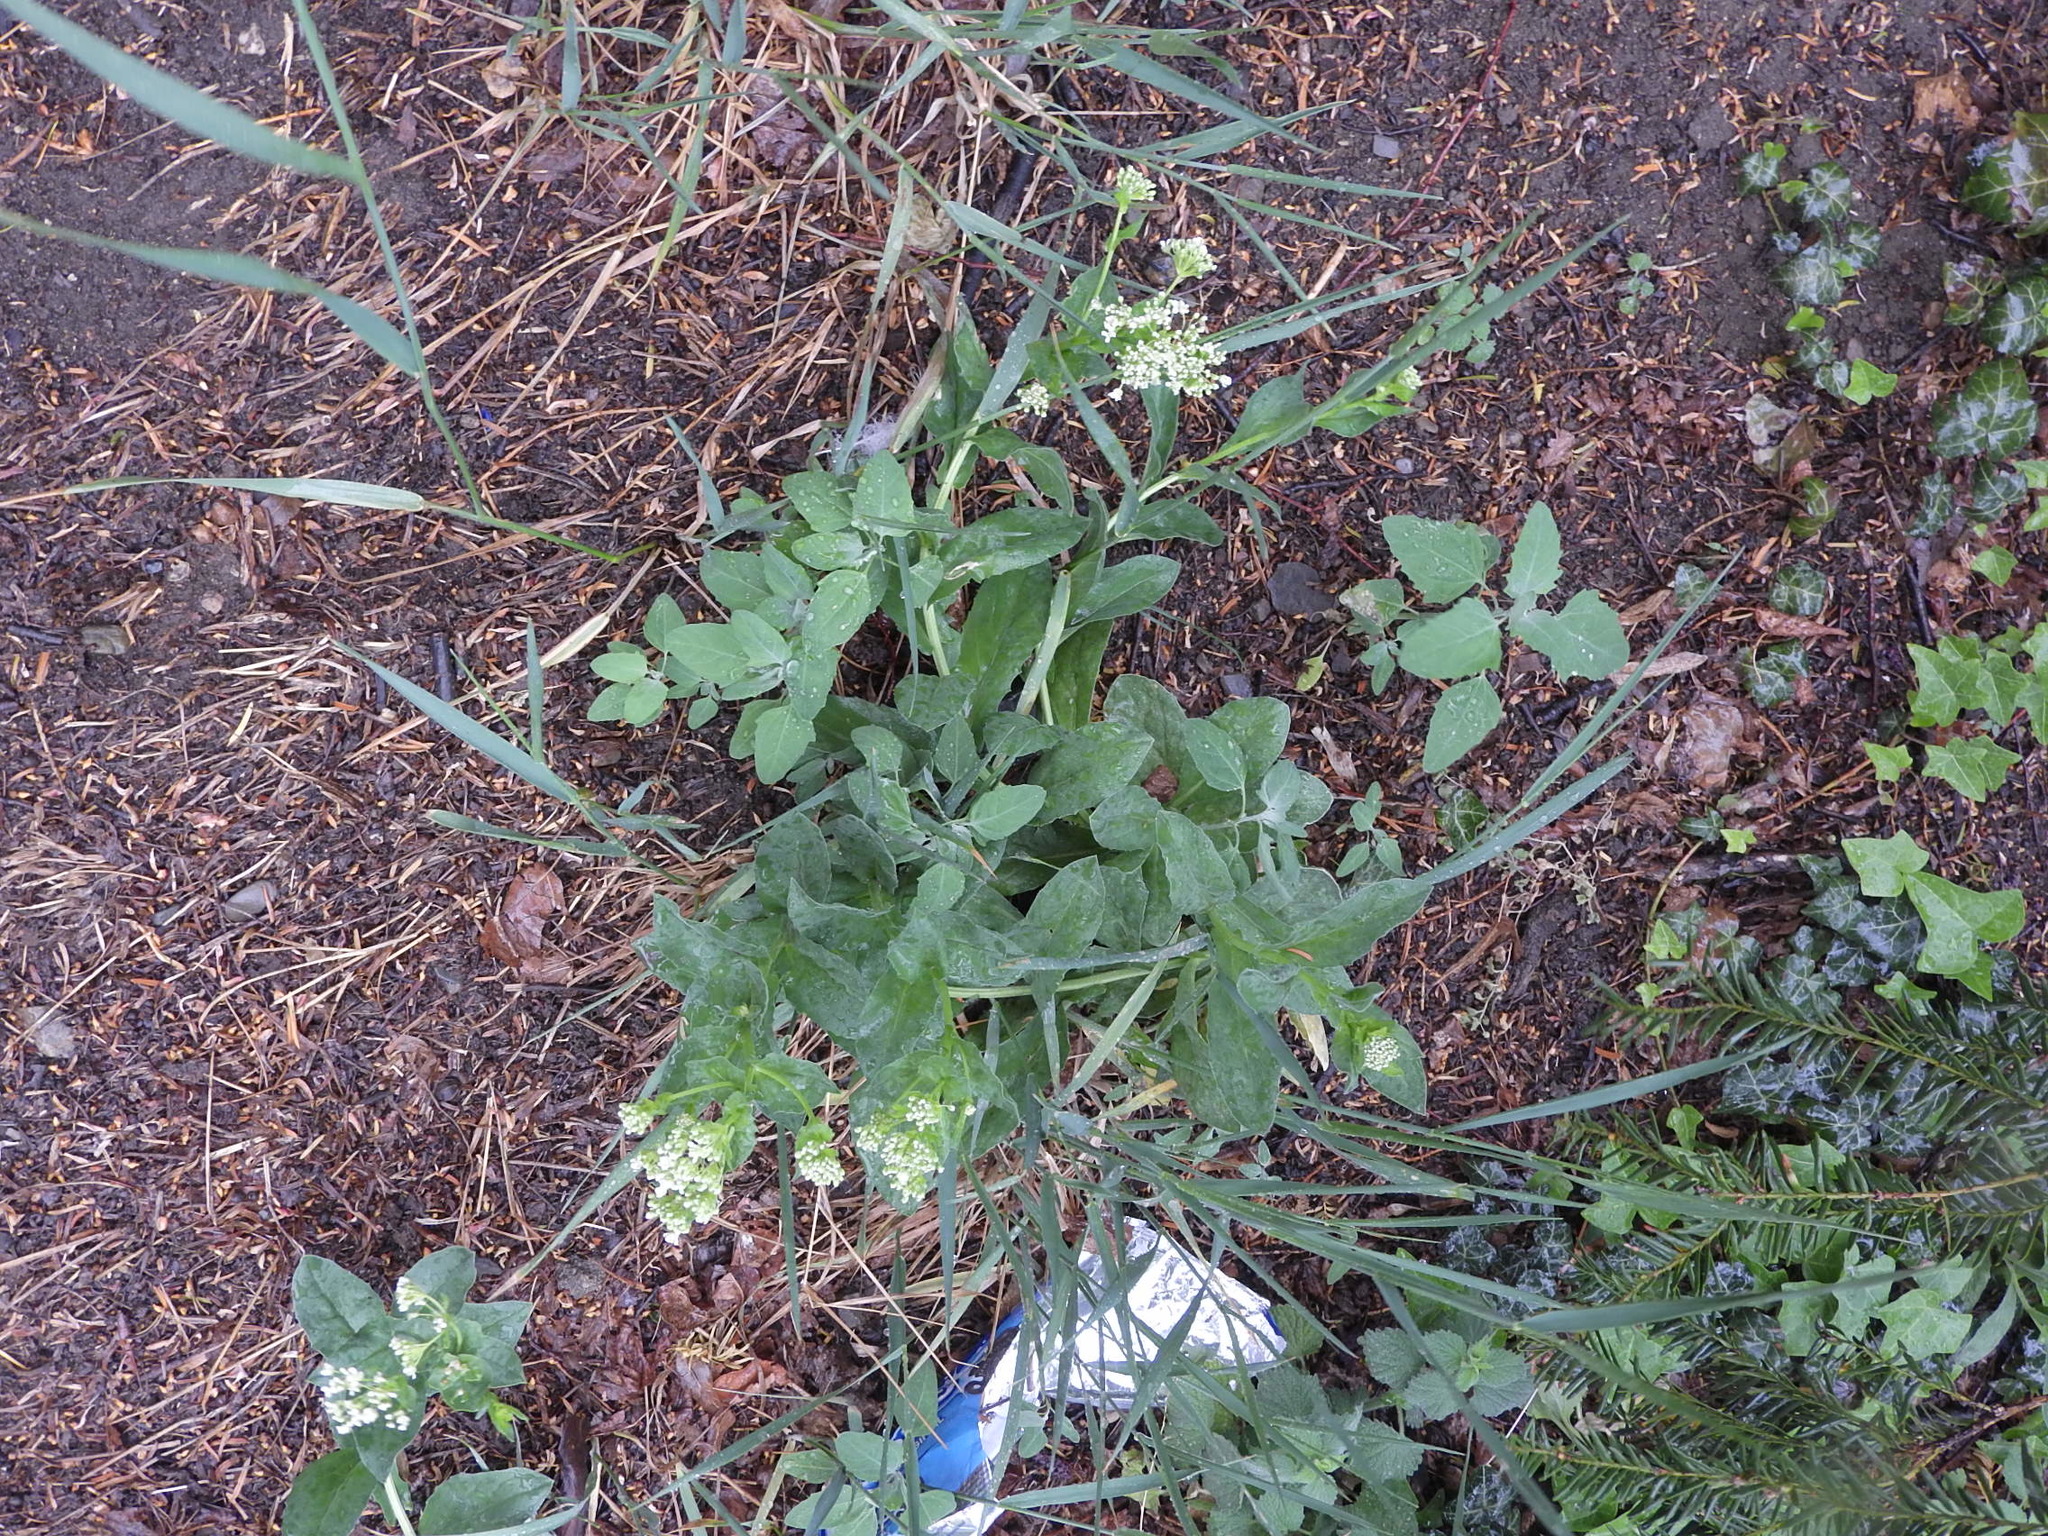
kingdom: Plantae
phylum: Tracheophyta
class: Magnoliopsida
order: Brassicales
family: Brassicaceae
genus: Lepidium
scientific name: Lepidium draba
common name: Hoary cress
